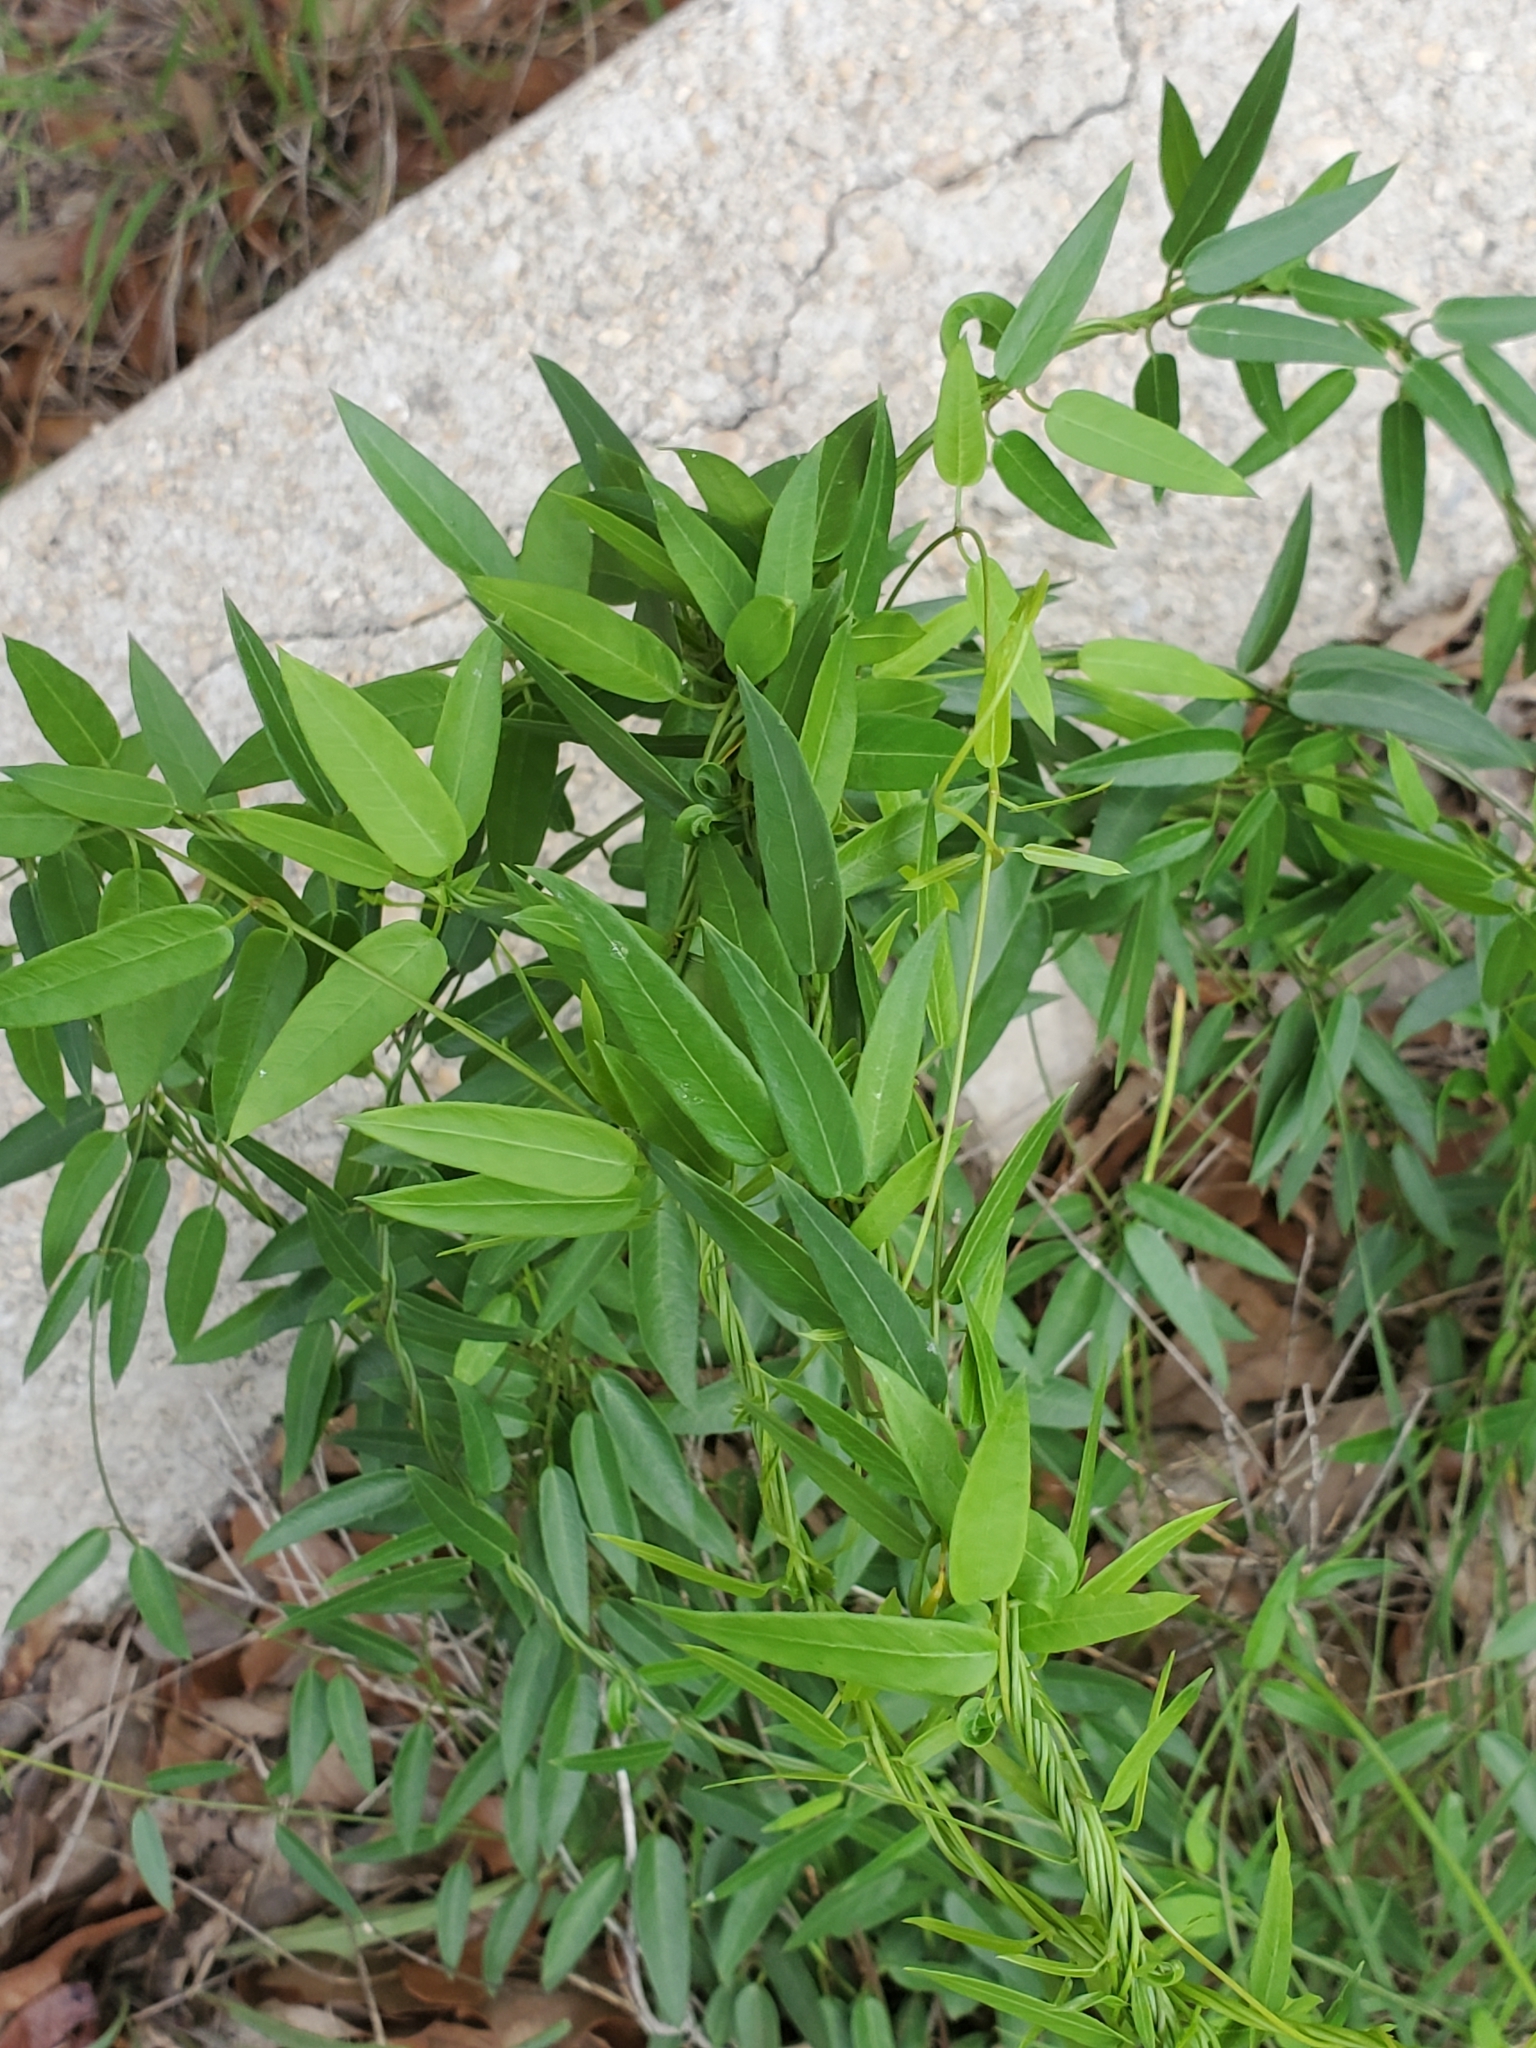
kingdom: Plantae
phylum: Tracheophyta
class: Magnoliopsida
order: Gentianales
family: Apocynaceae
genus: Metastelma
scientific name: Metastelma palmeri
